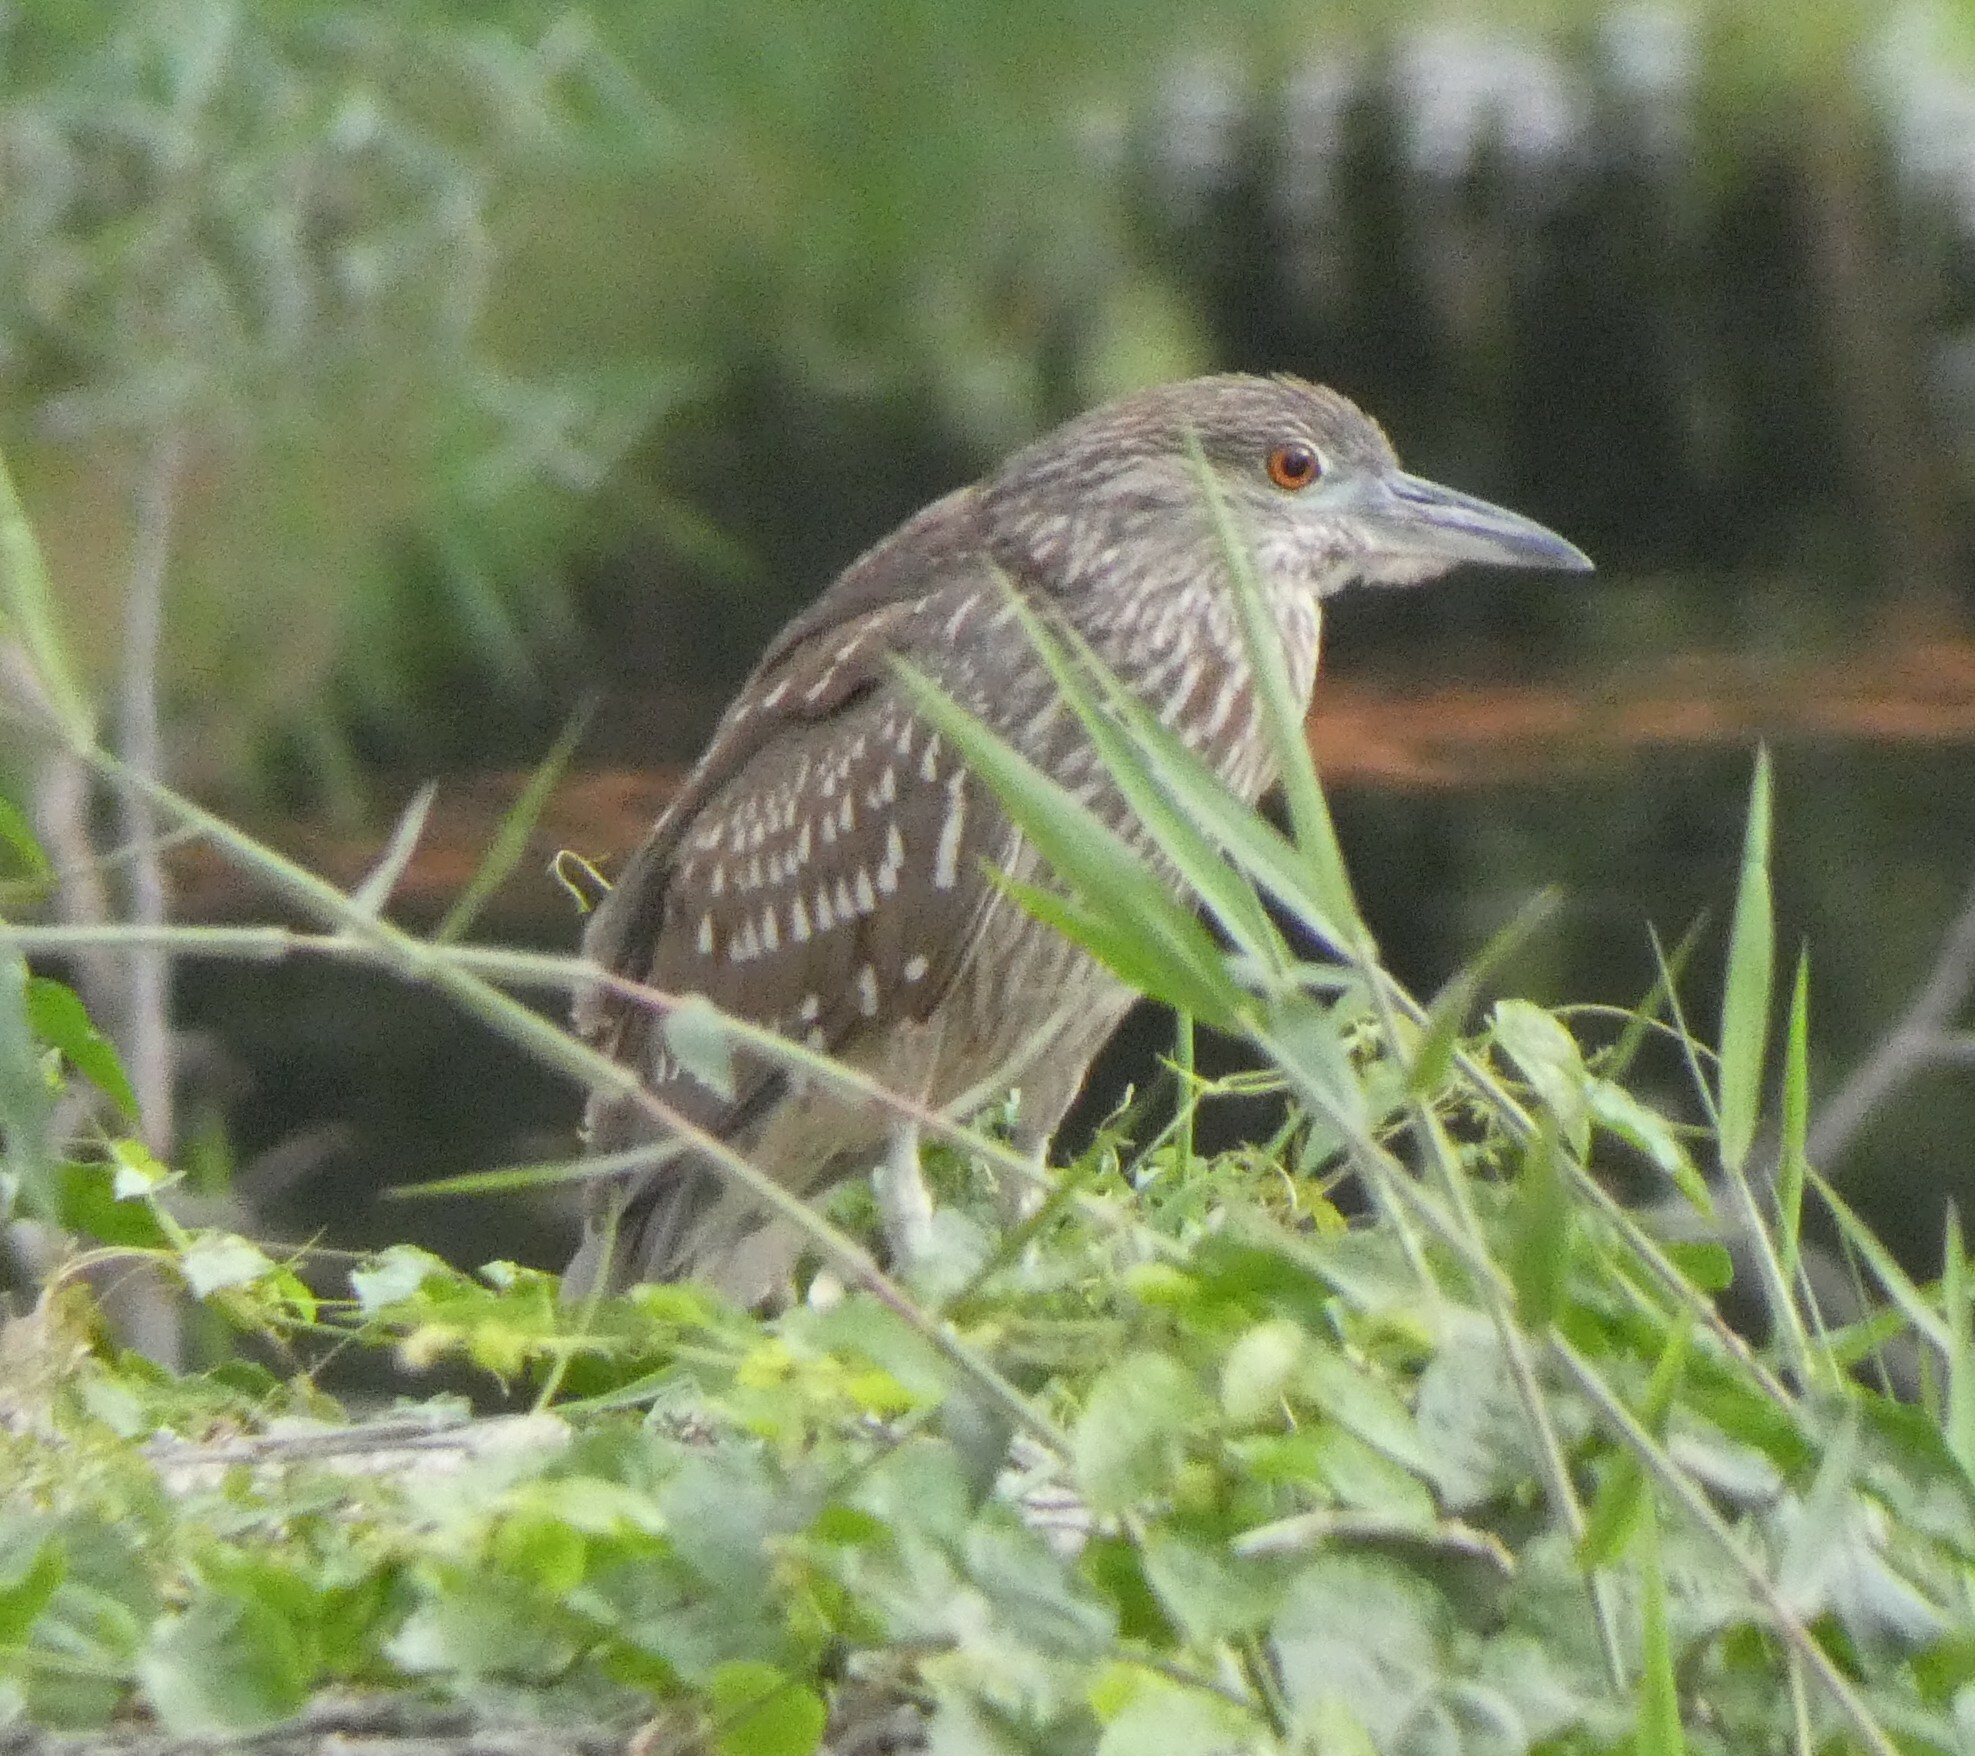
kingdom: Animalia
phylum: Chordata
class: Aves
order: Pelecaniformes
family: Ardeidae
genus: Nycticorax
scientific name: Nycticorax nycticorax
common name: Black-crowned night heron
